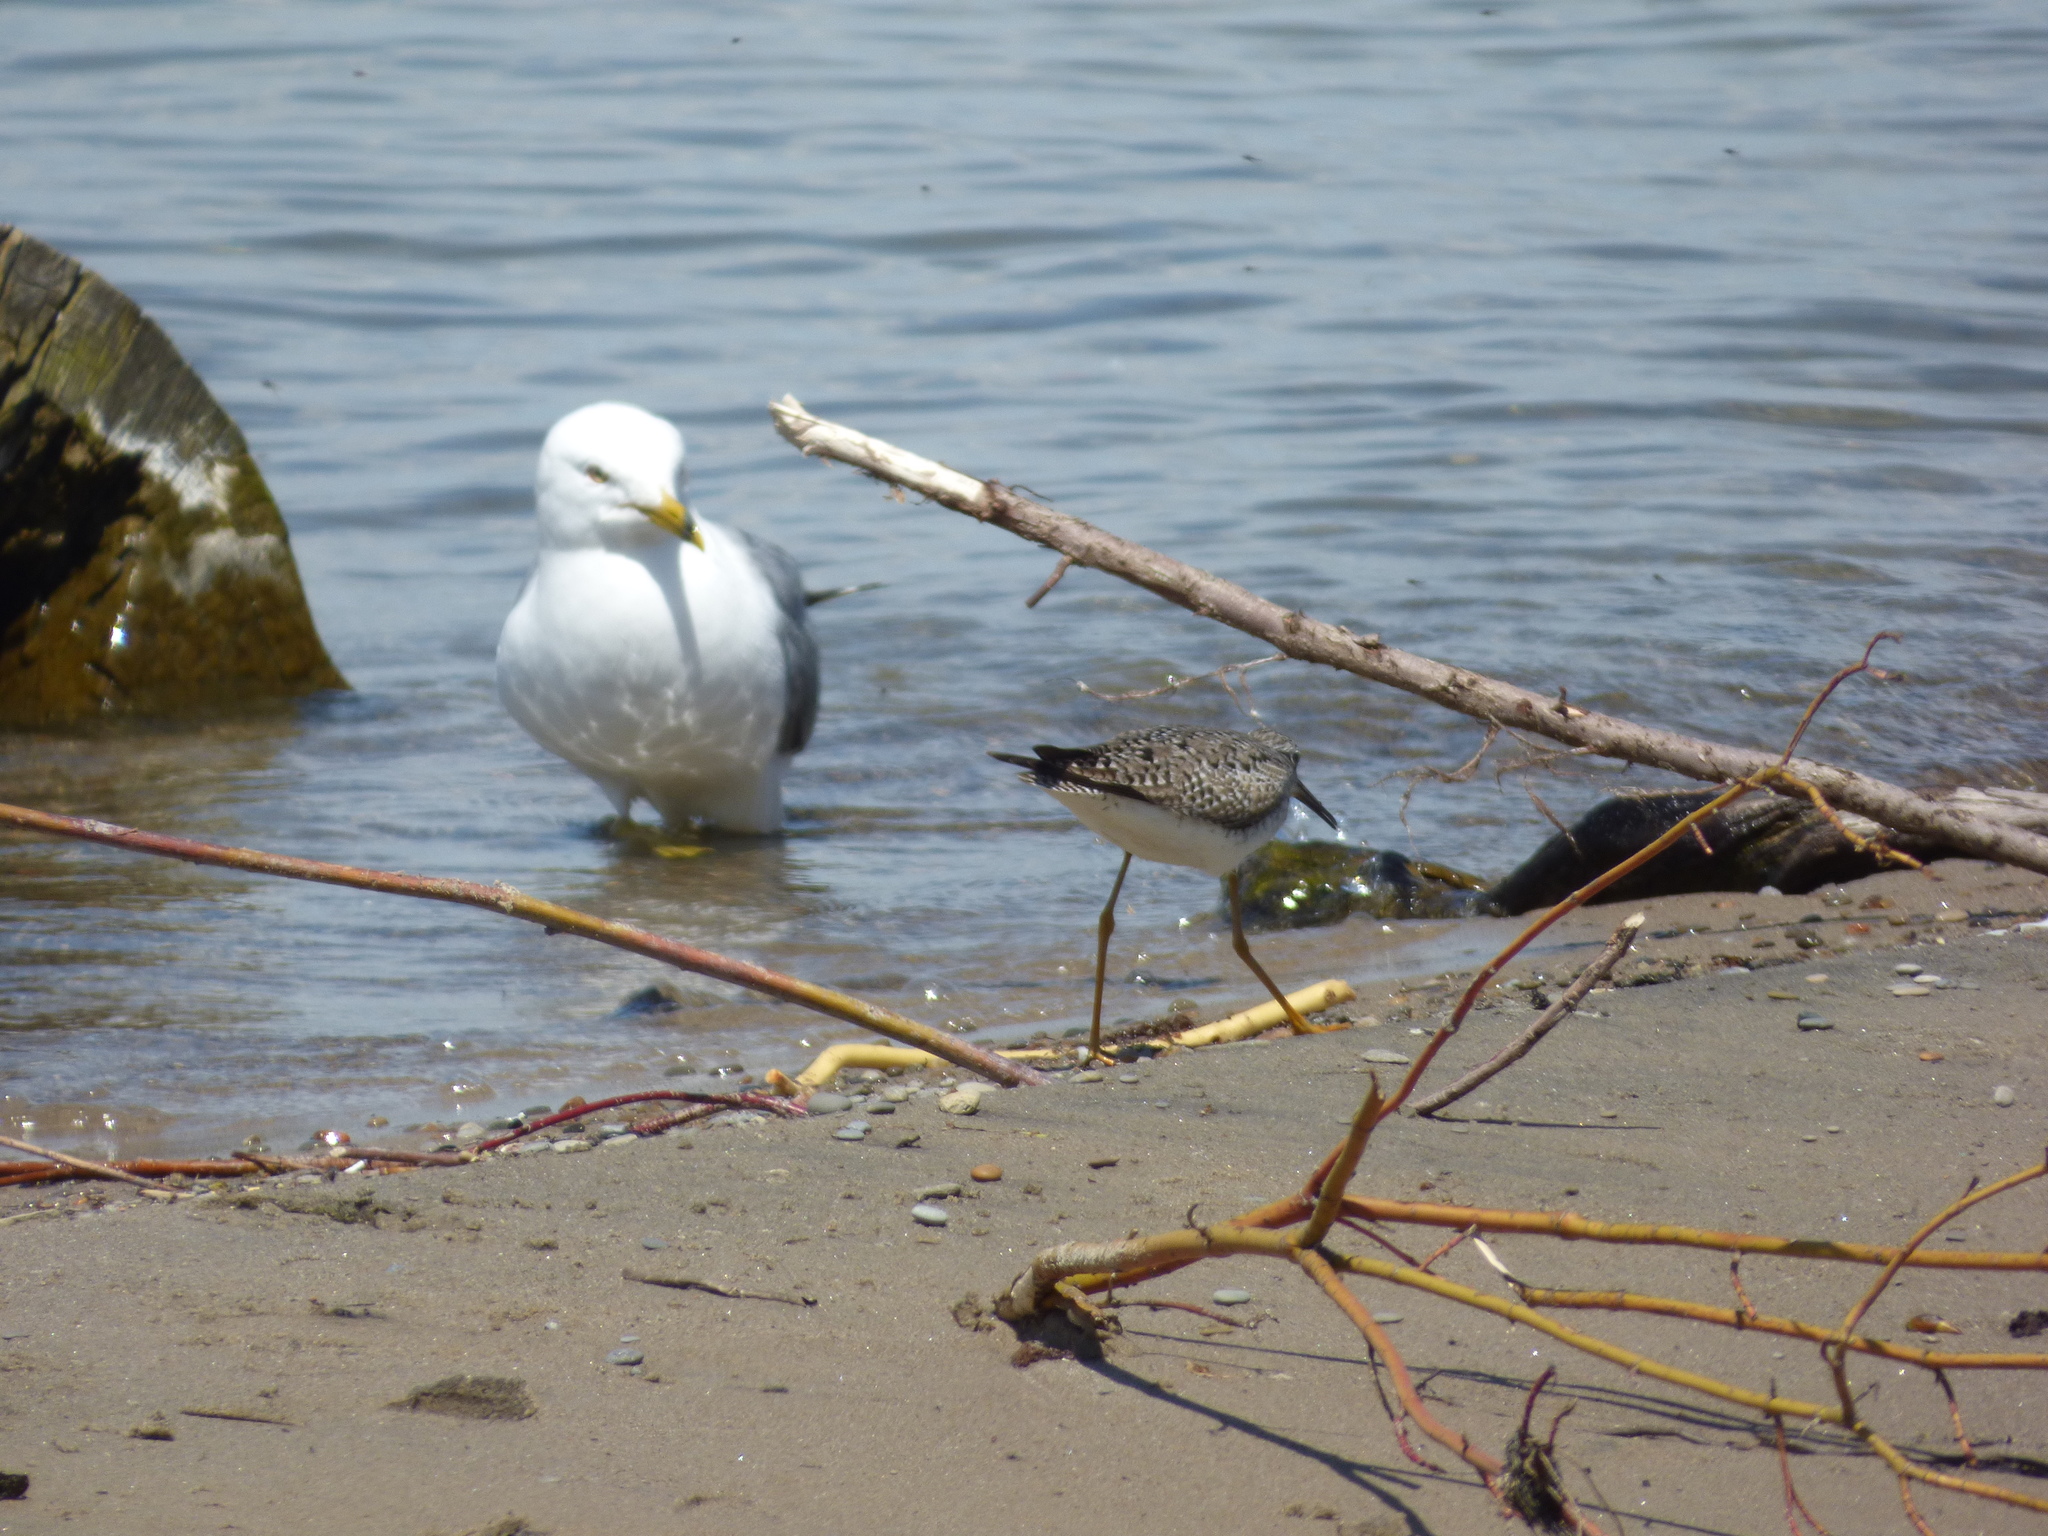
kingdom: Animalia
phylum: Chordata
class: Aves
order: Charadriiformes
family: Laridae
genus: Larus
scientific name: Larus delawarensis
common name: Ring-billed gull
